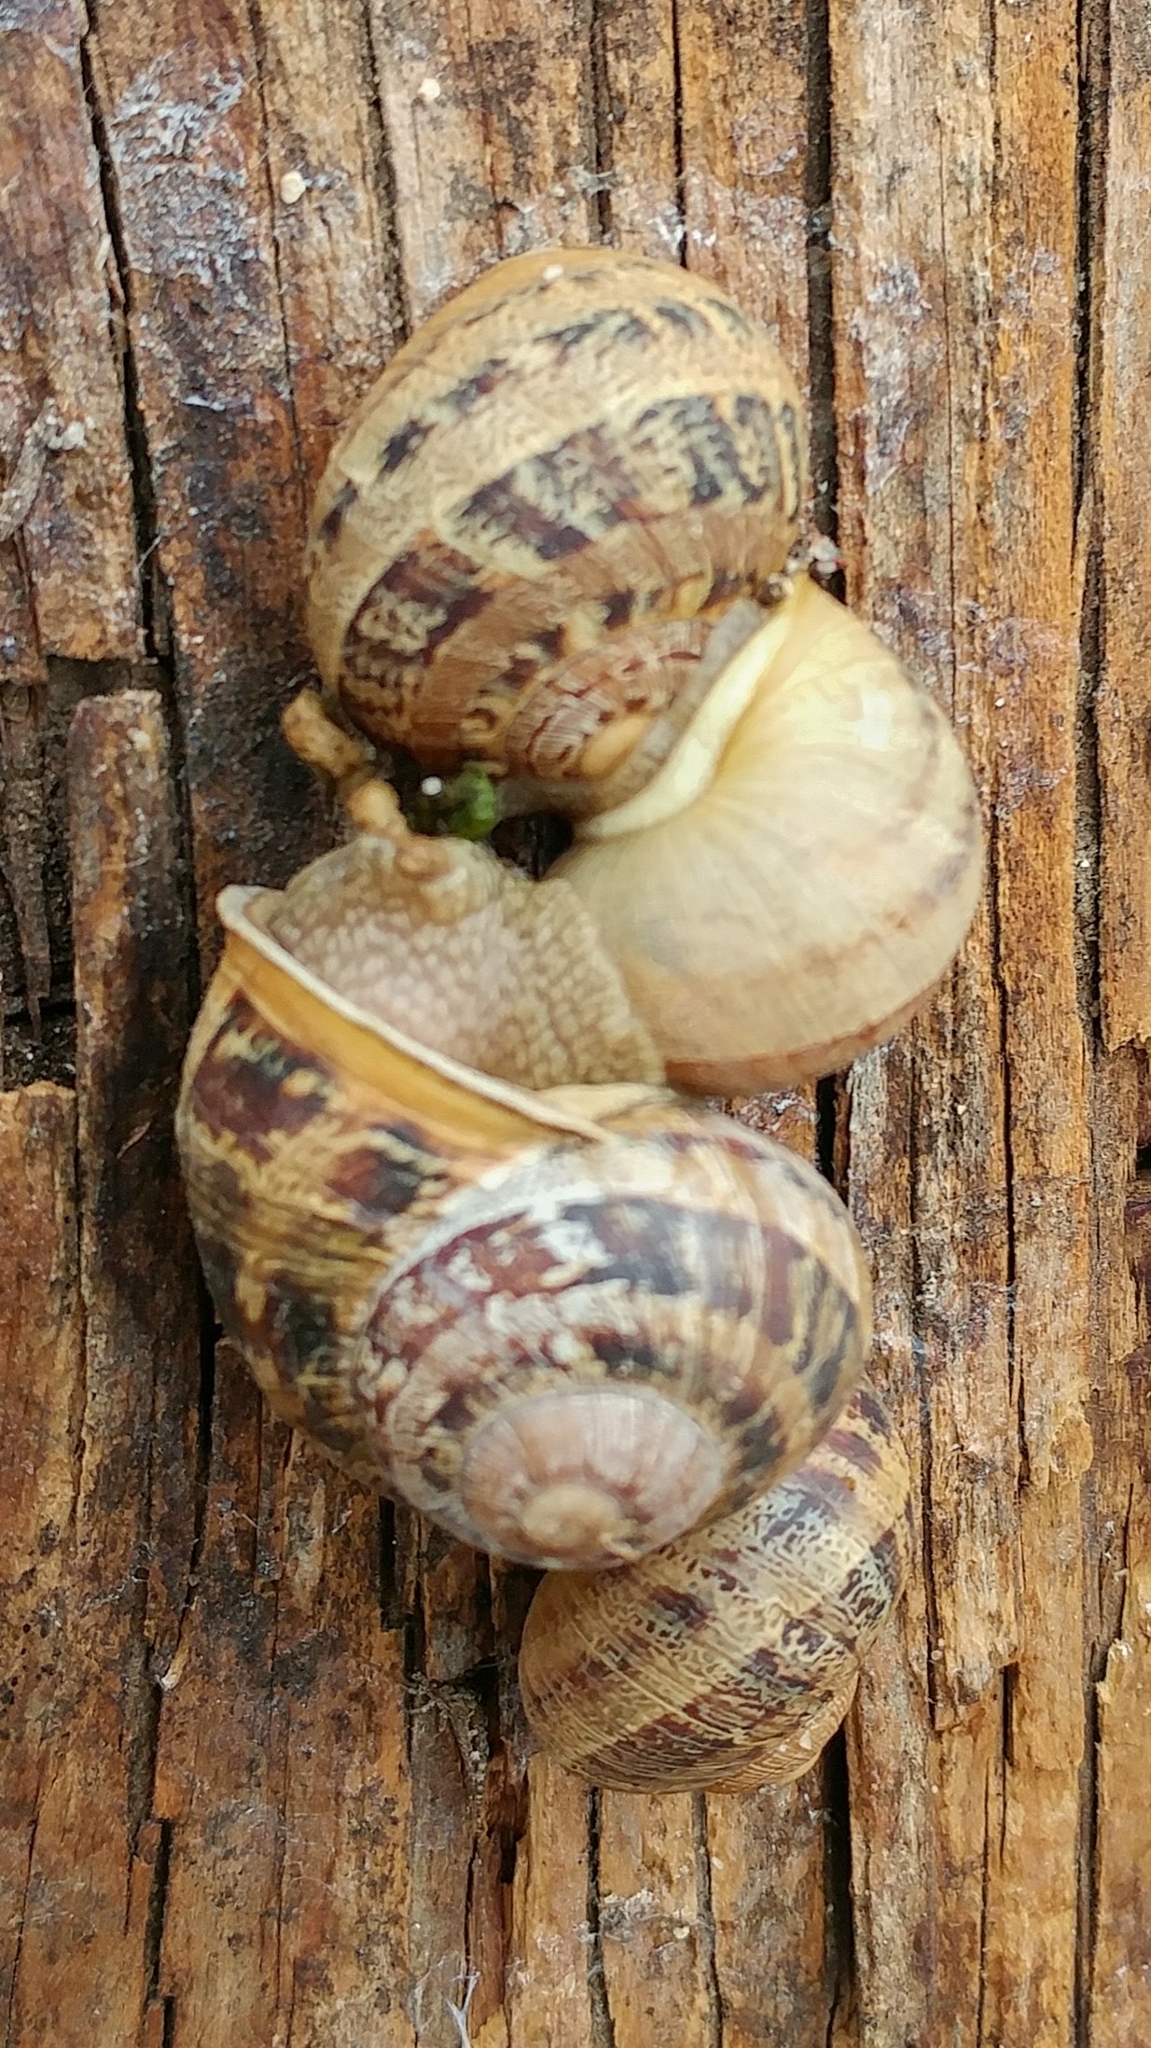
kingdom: Animalia
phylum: Mollusca
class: Gastropoda
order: Stylommatophora
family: Helicidae
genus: Cornu
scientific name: Cornu aspersum
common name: Brown garden snail
